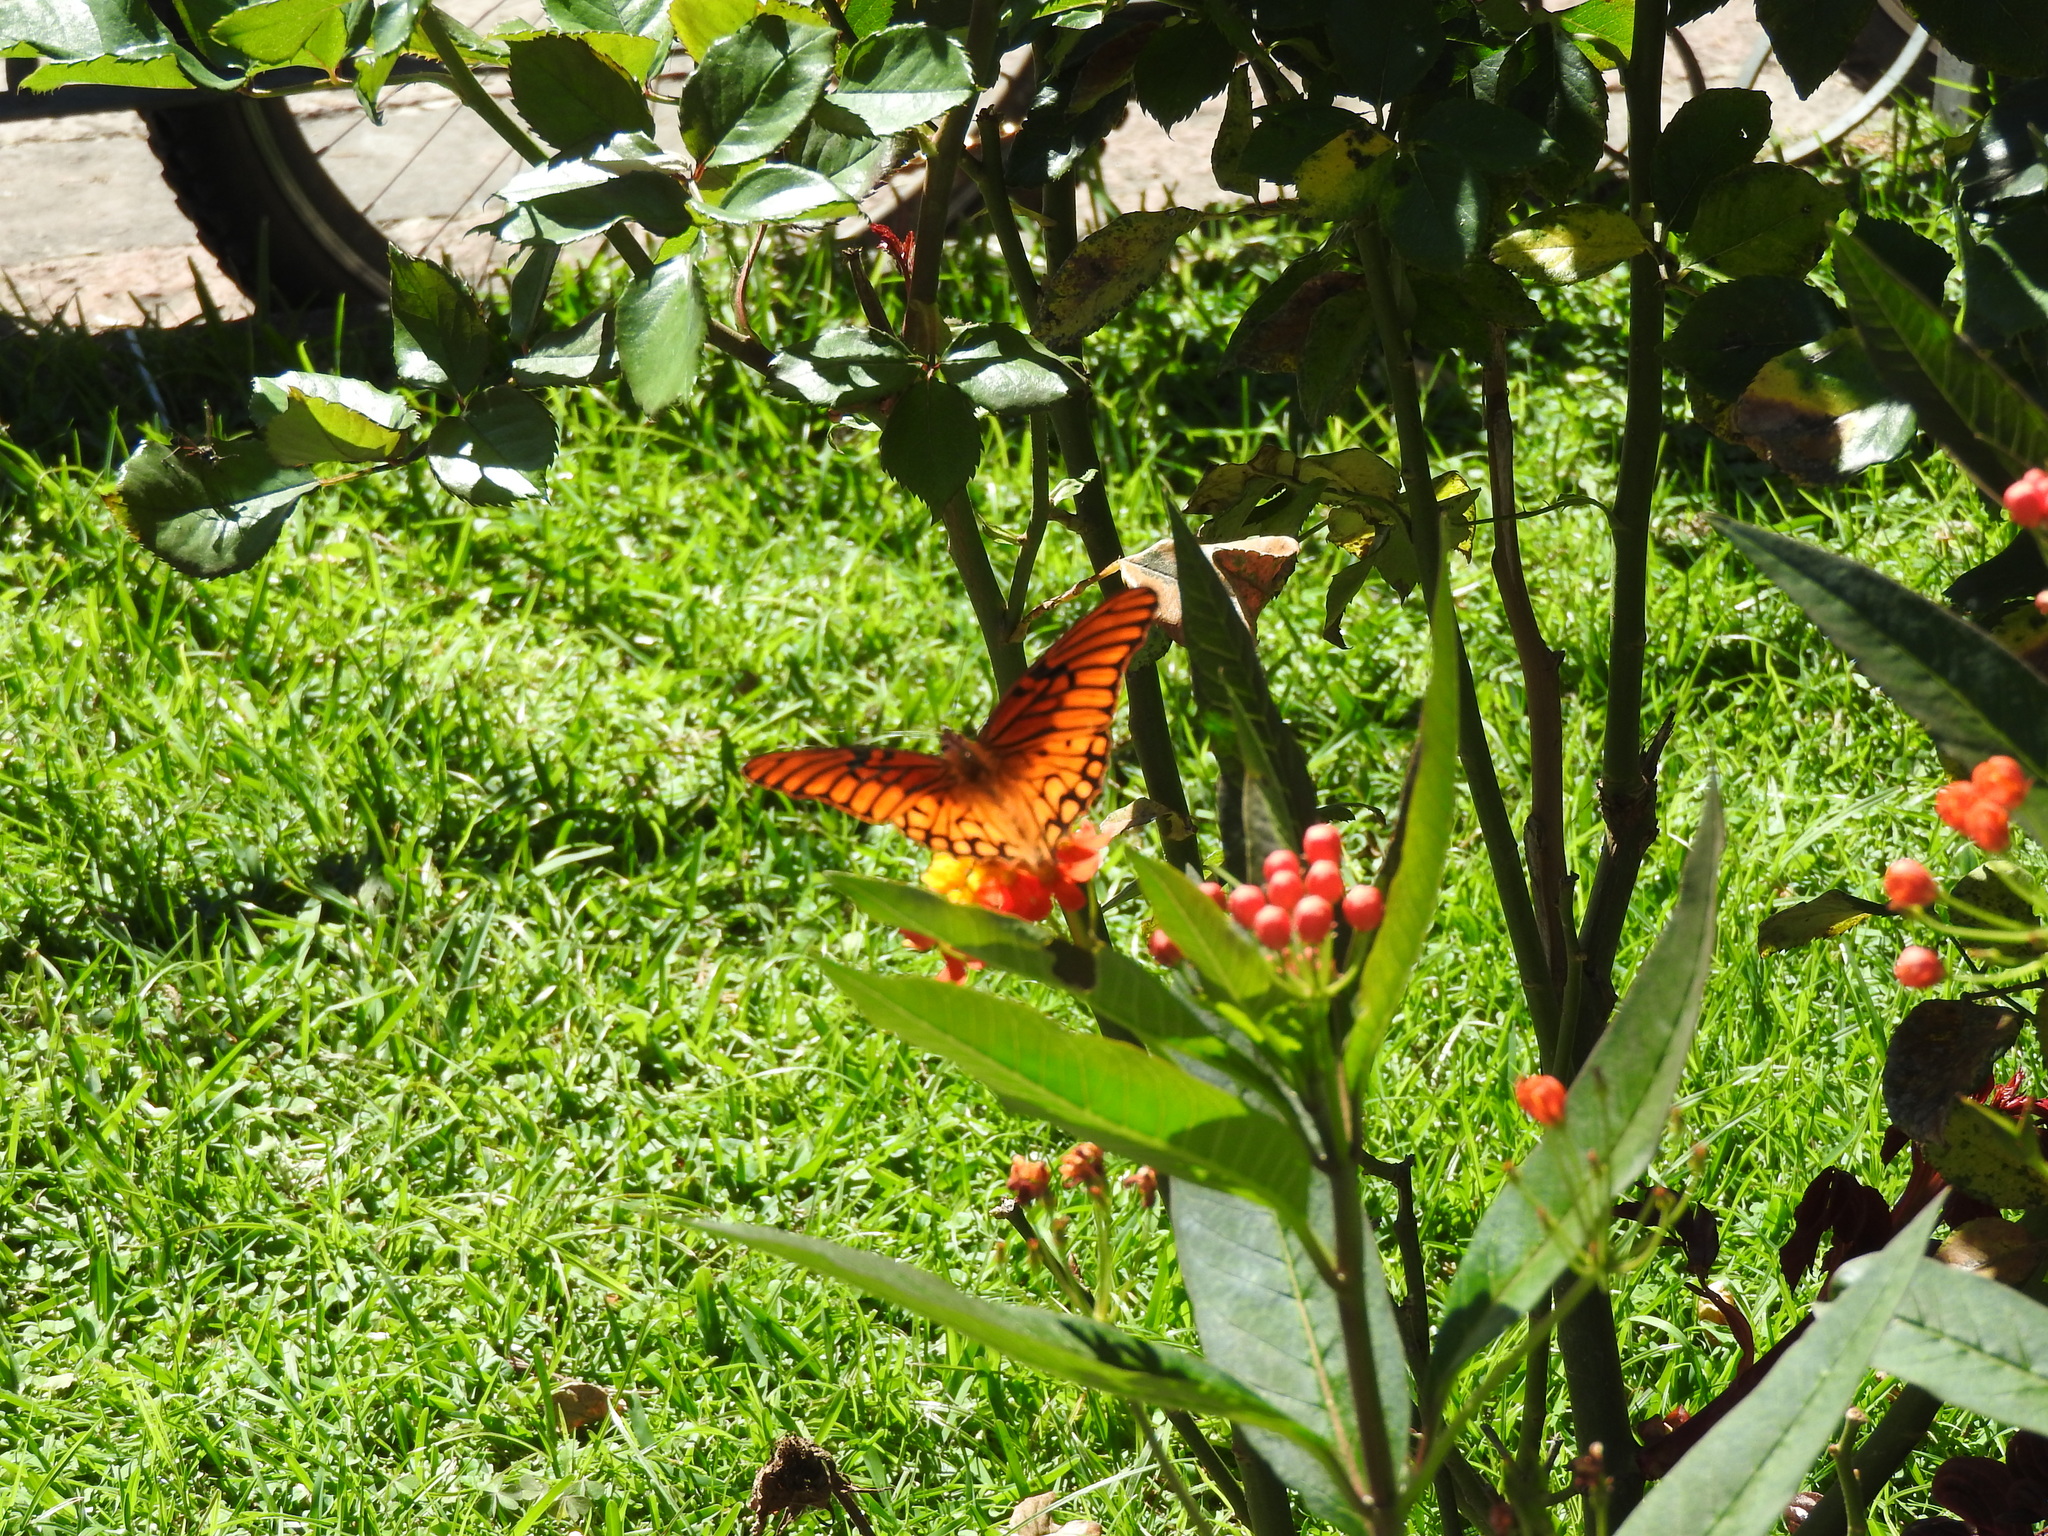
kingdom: Animalia
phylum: Arthropoda
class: Insecta
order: Lepidoptera
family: Nymphalidae
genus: Dione
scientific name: Dione moneta
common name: Mexican silverspot
